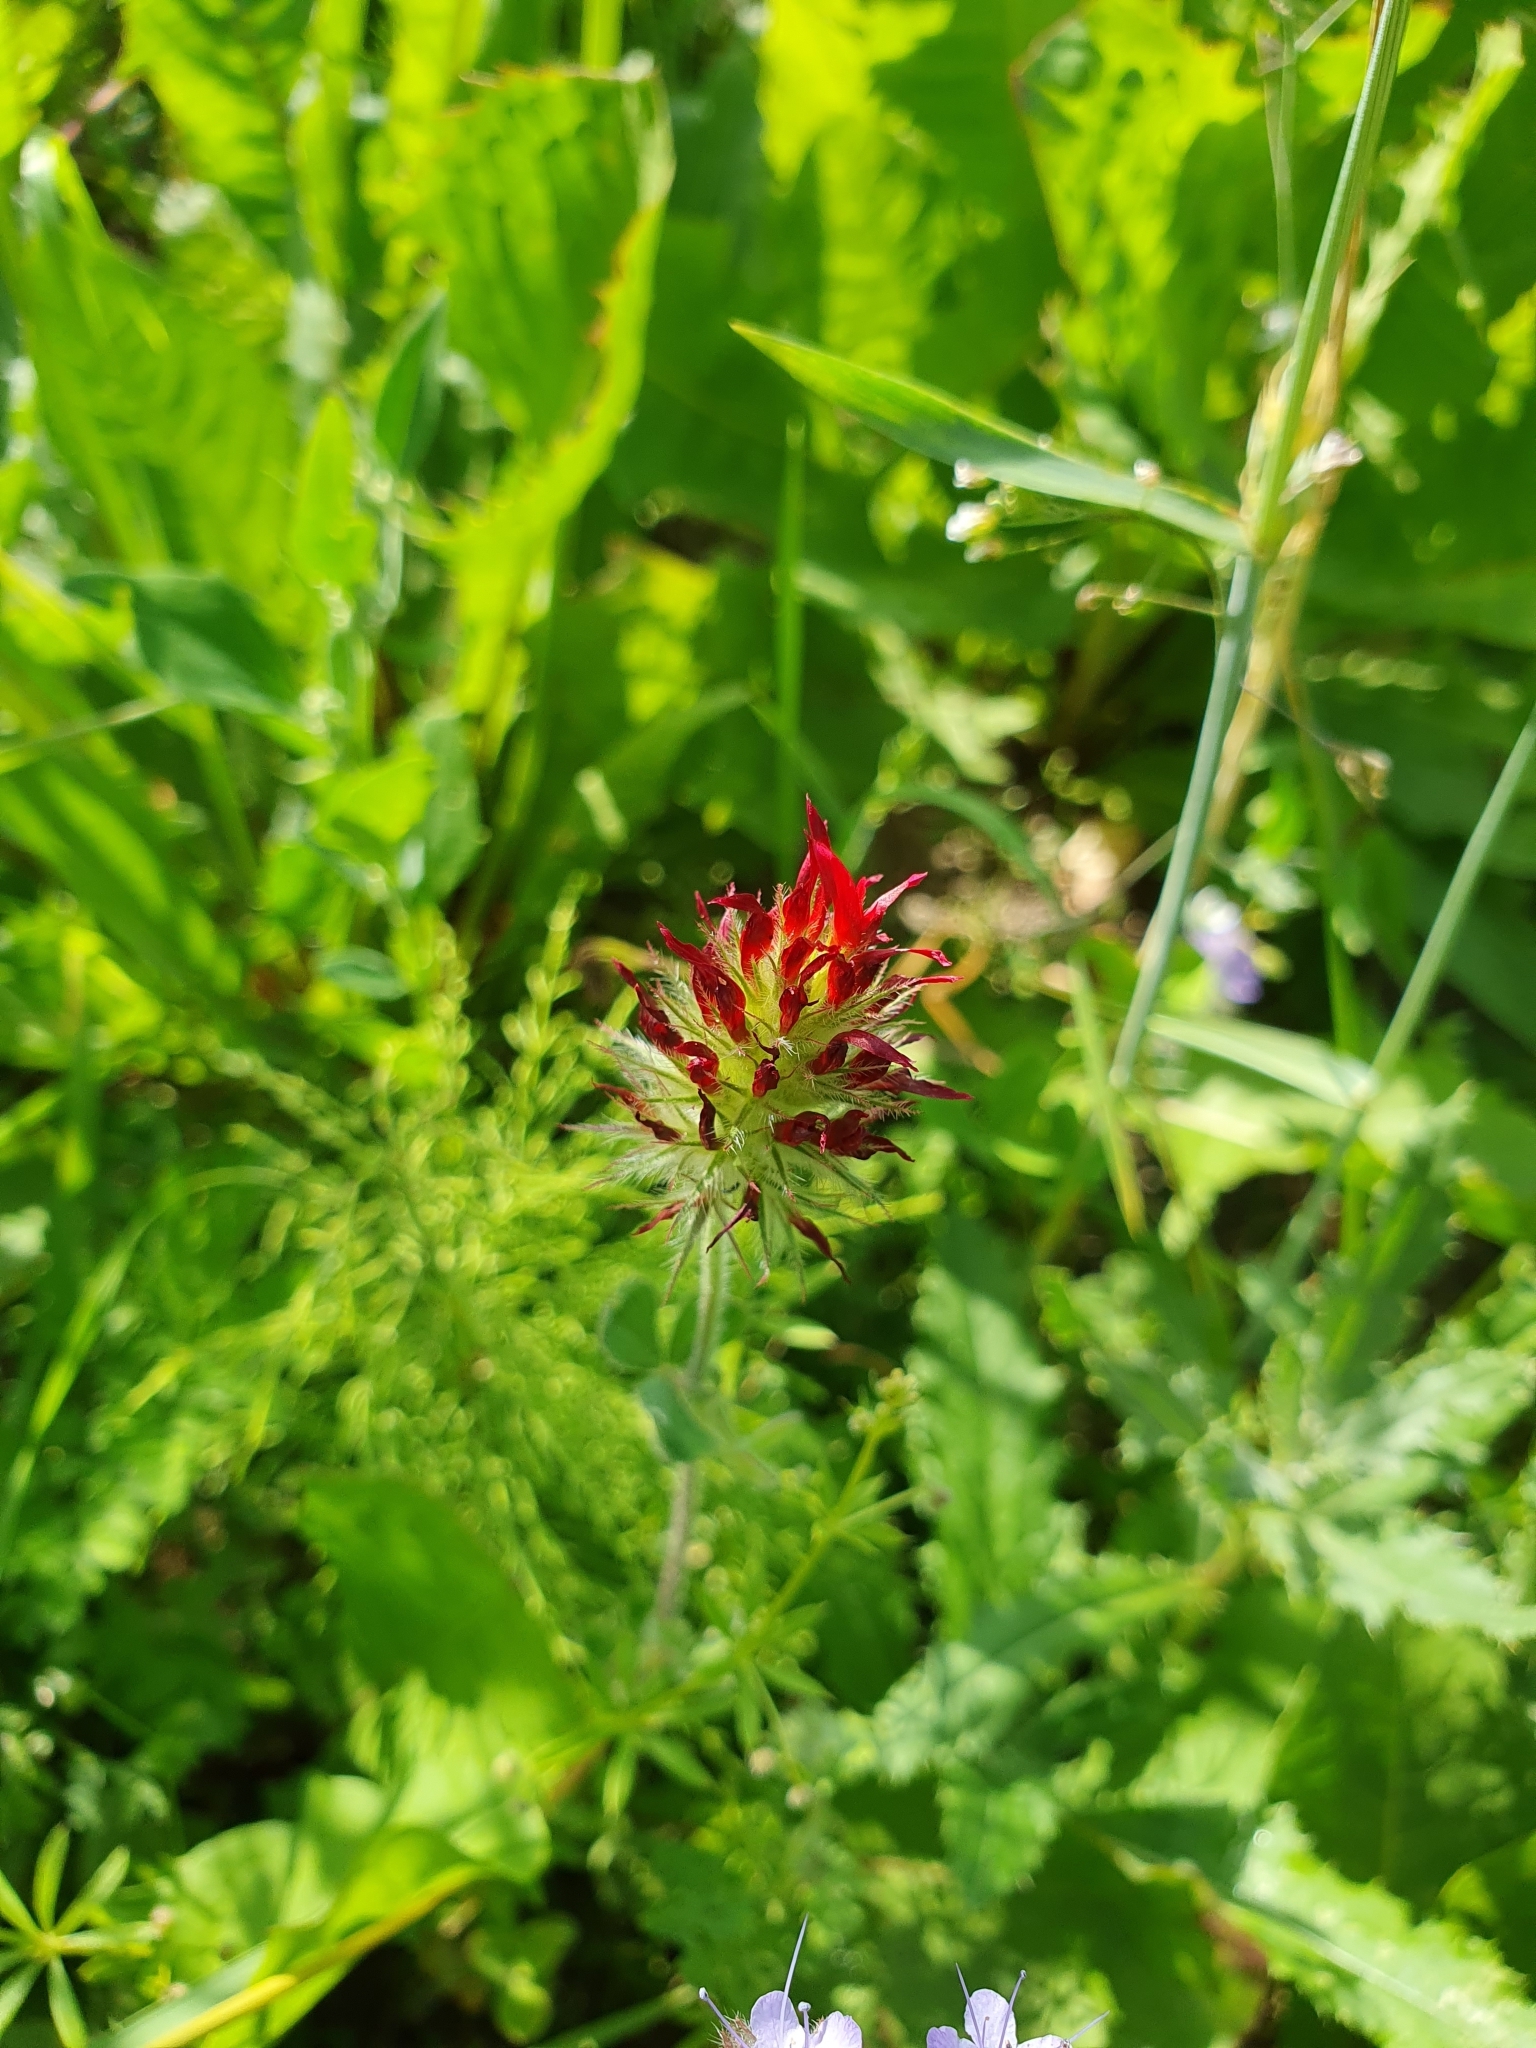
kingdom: Plantae
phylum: Tracheophyta
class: Magnoliopsida
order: Fabales
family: Fabaceae
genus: Trifolium
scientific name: Trifolium incarnatum
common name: Crimson clover
